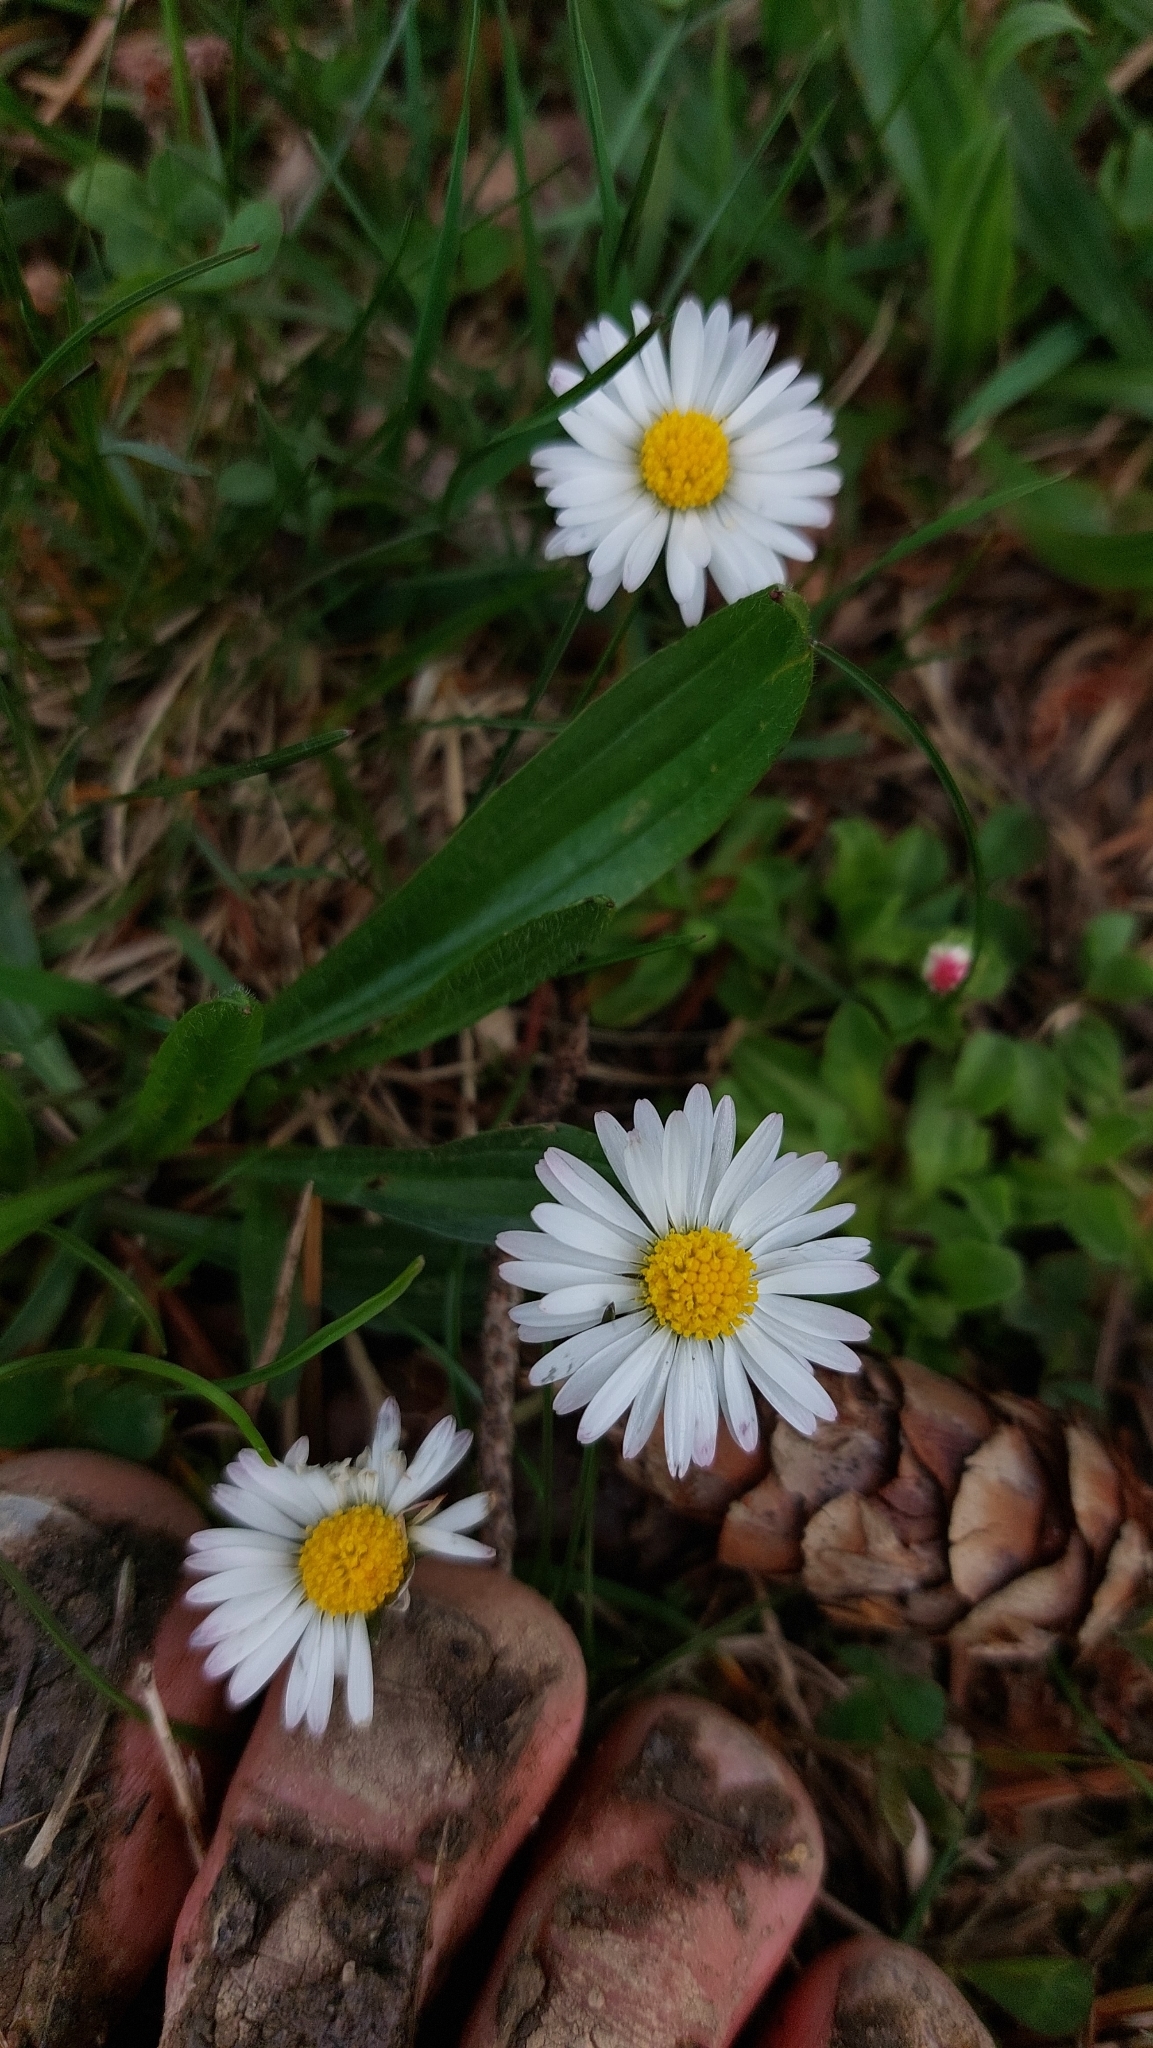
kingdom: Plantae
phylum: Tracheophyta
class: Magnoliopsida
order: Asterales
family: Asteraceae
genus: Bellis
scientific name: Bellis perennis
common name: Lawndaisy
